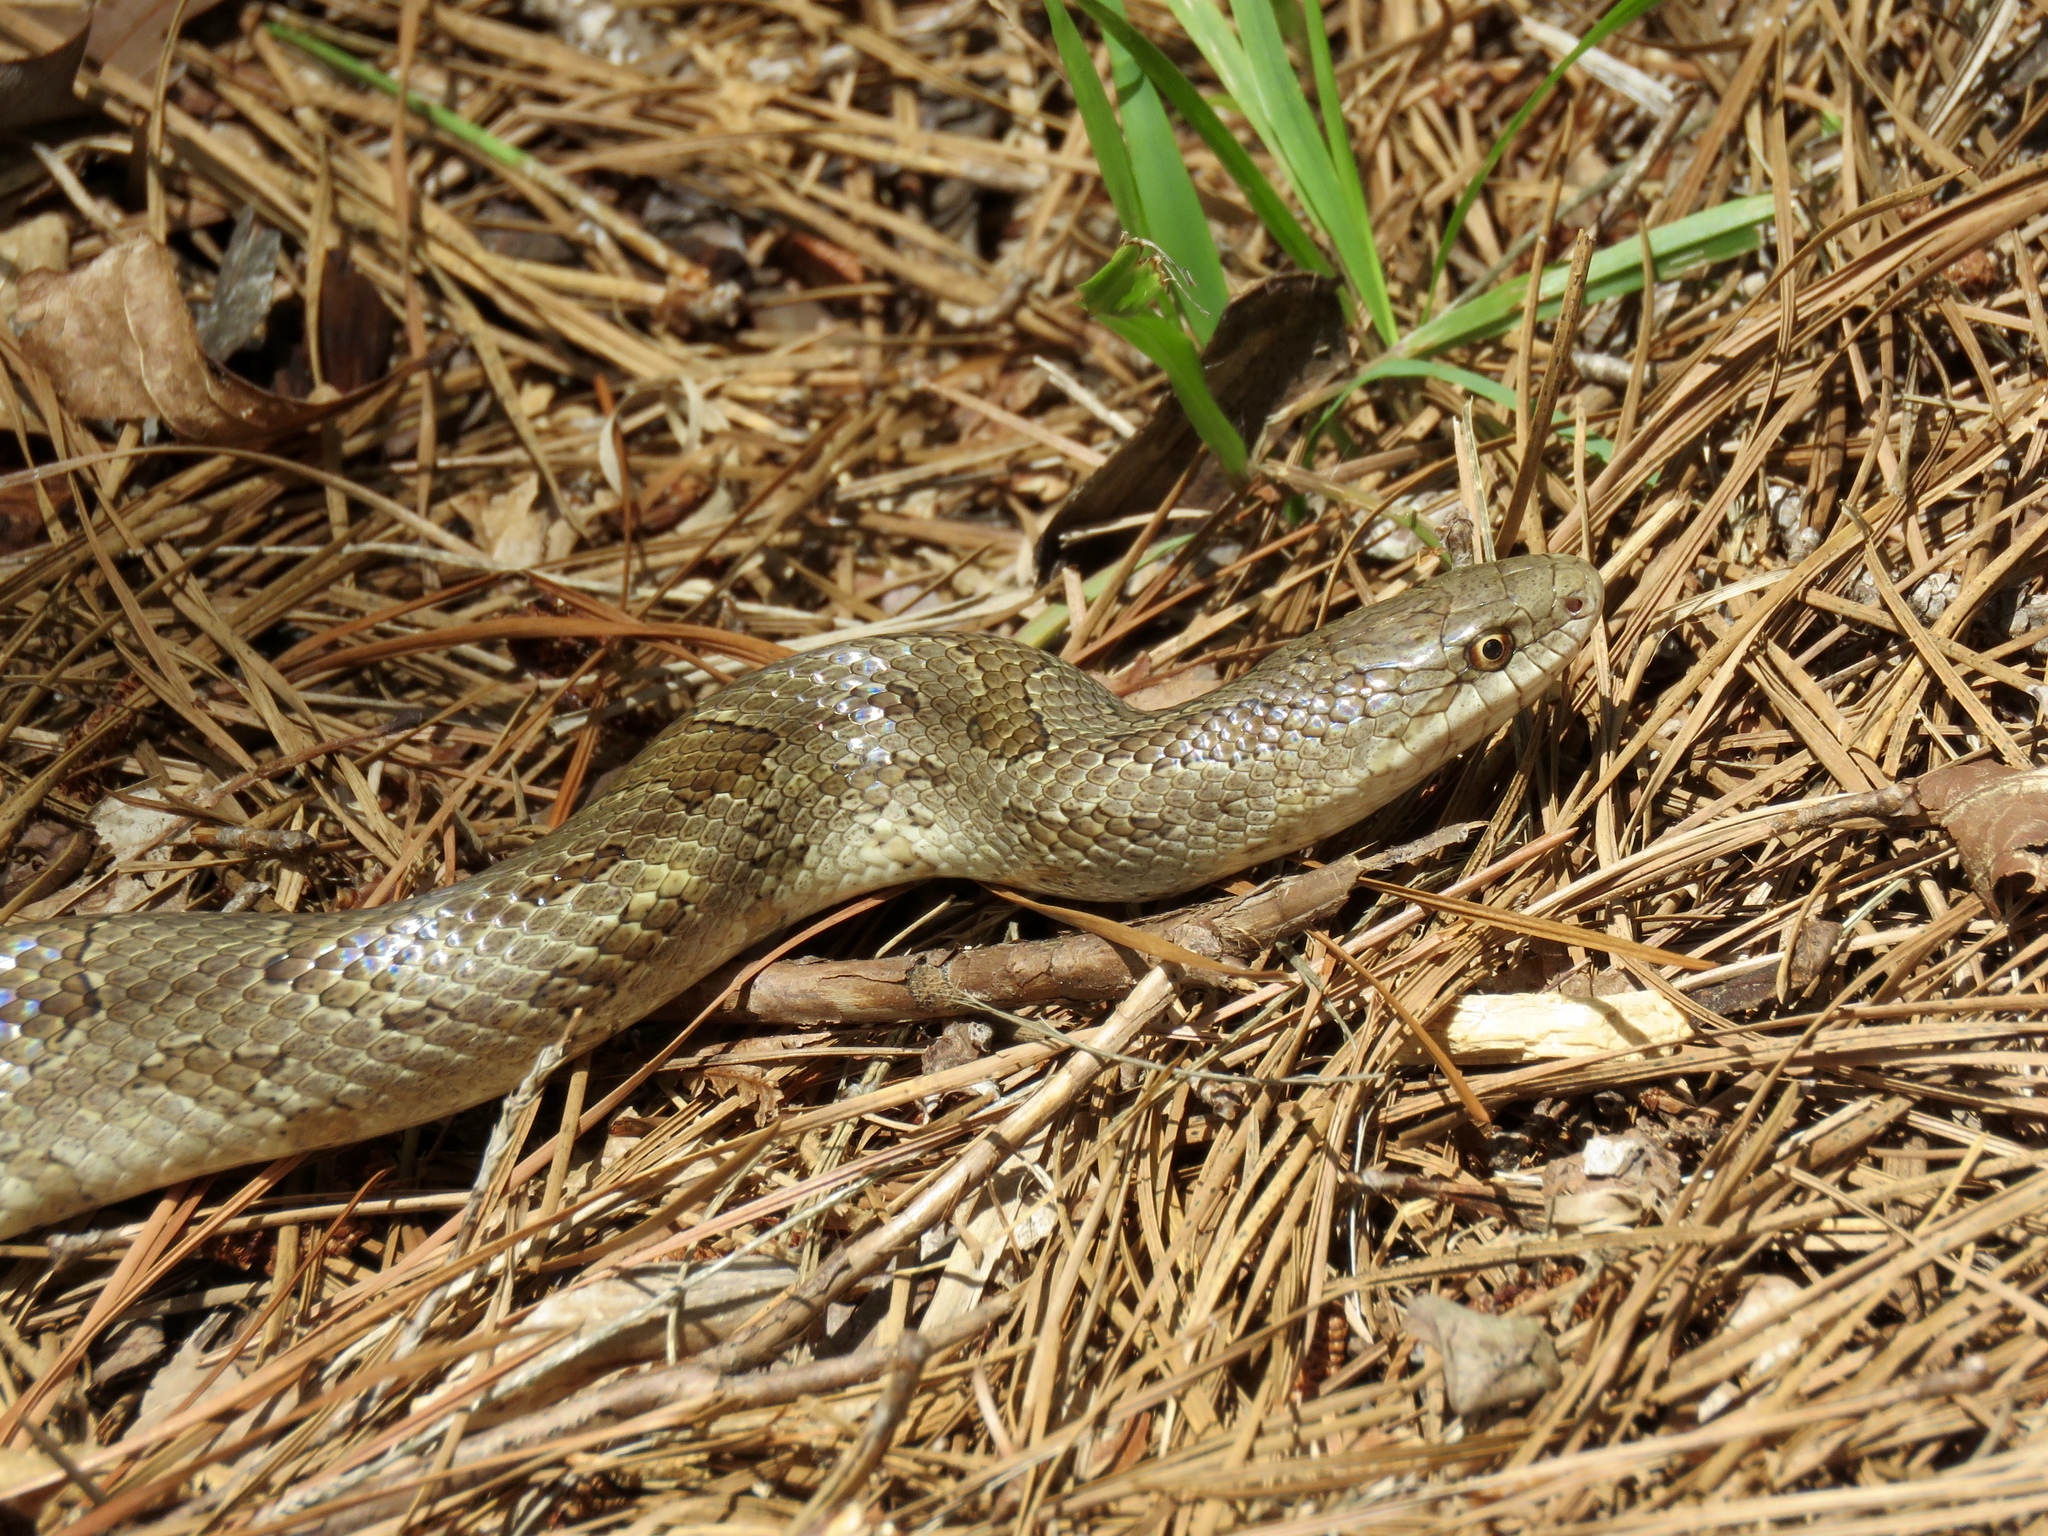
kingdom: Animalia
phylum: Chordata
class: Squamata
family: Colubridae
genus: Lampropeltis
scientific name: Lampropeltis calligaster
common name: Prairie kingsnake
